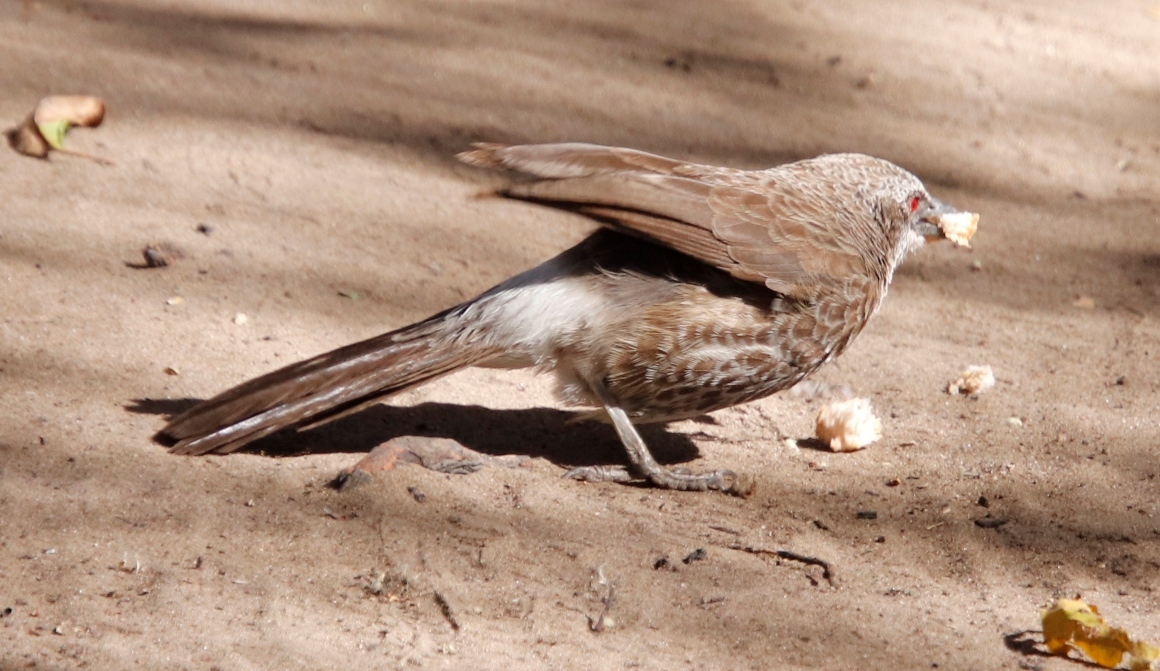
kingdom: Animalia
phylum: Chordata
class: Aves
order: Passeriformes
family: Leiothrichidae
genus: Turdoides
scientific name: Turdoides hartlaubii
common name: Hartlaub's babbler
